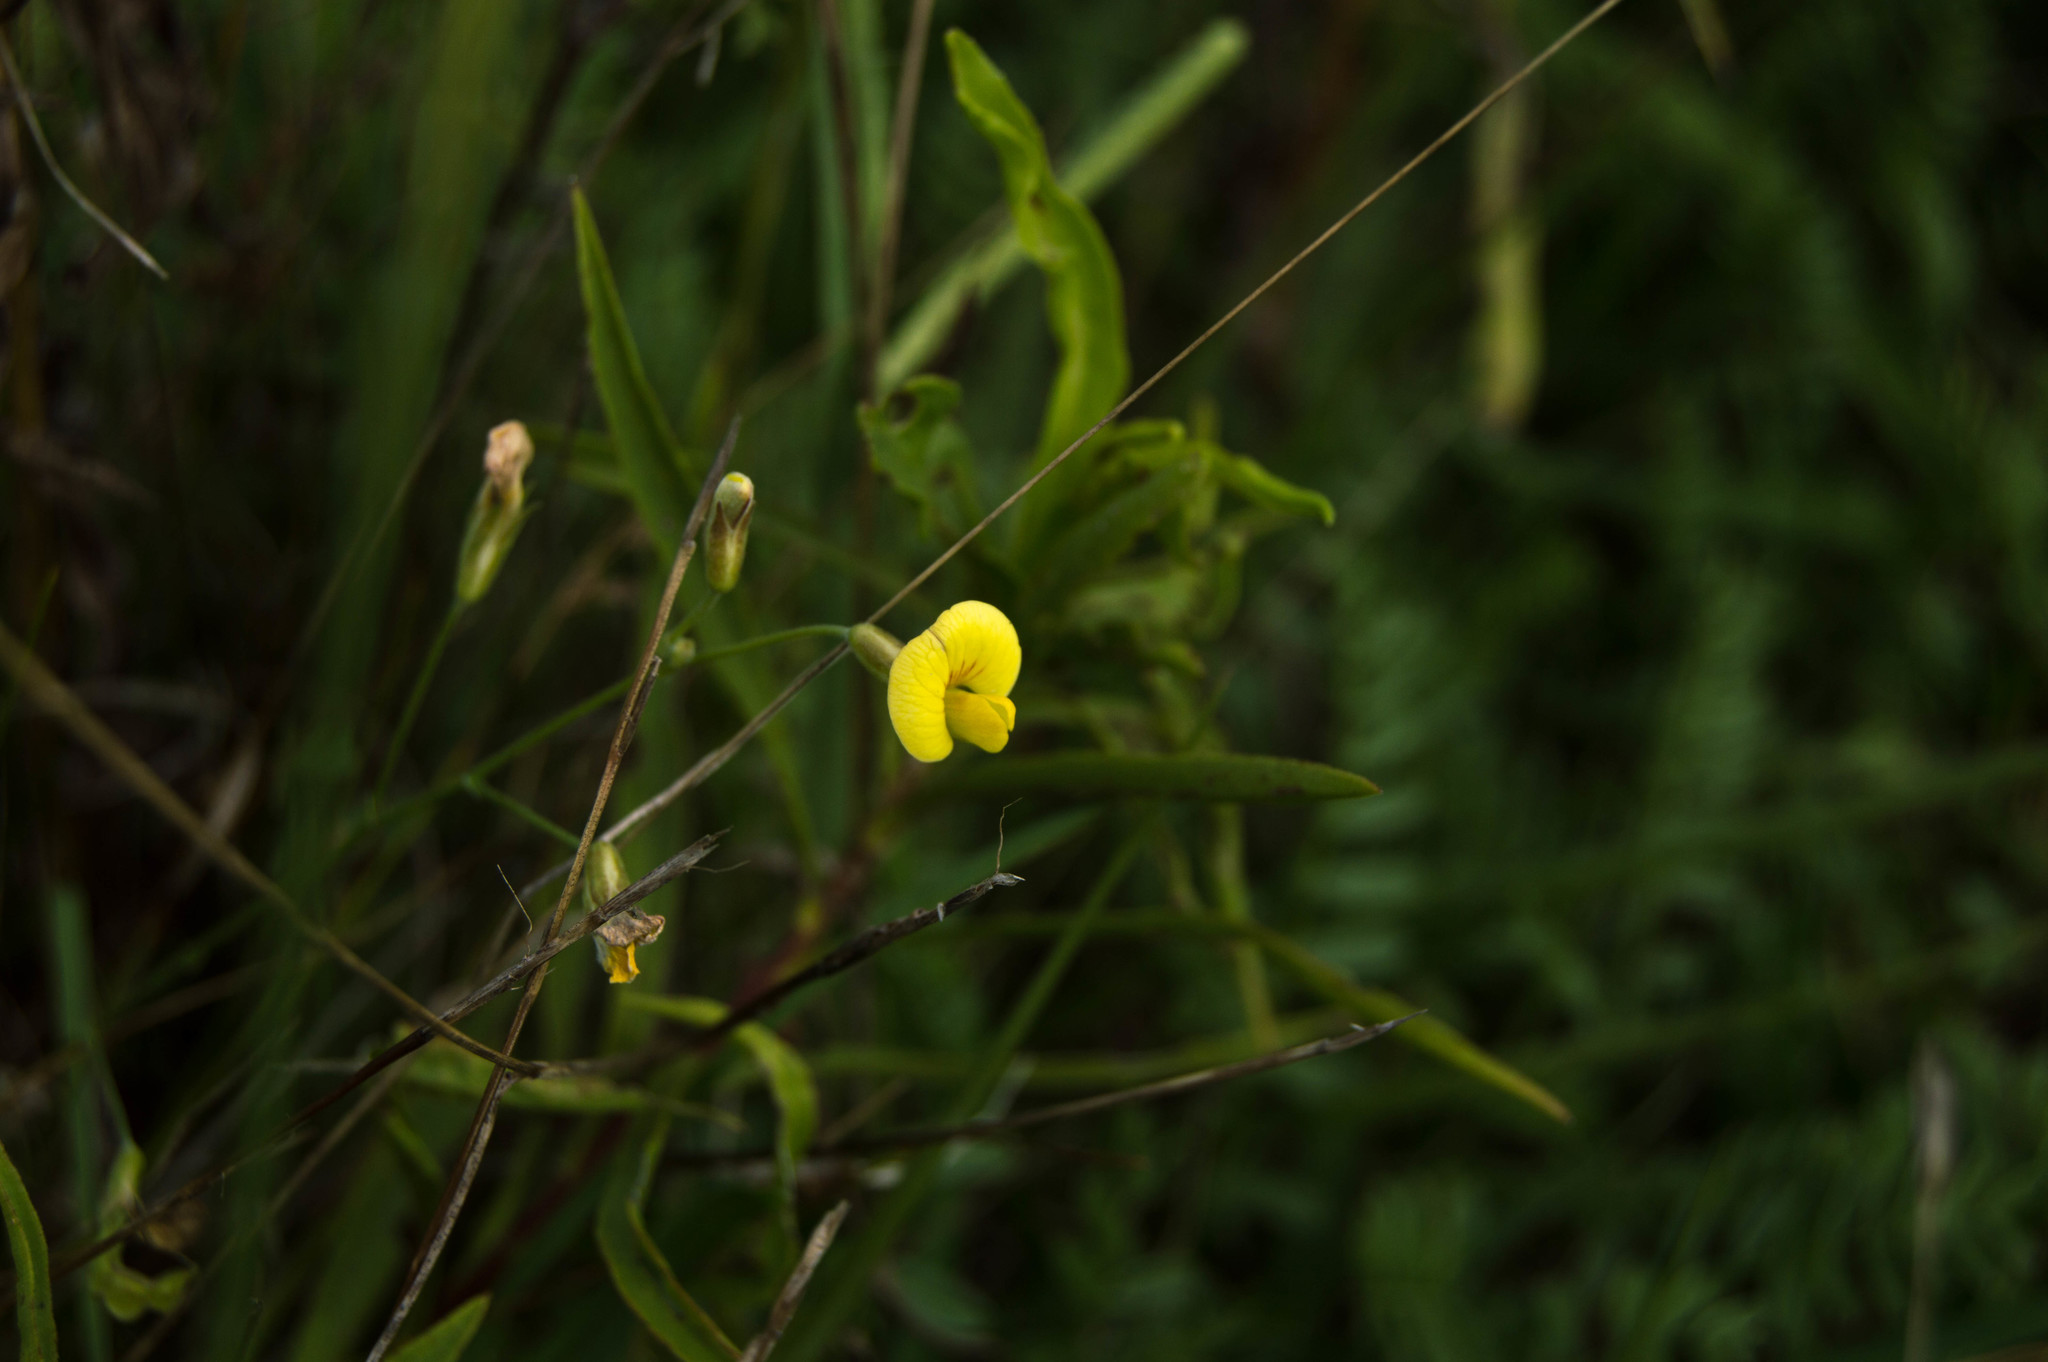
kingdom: Plantae
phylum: Tracheophyta
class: Magnoliopsida
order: Fabales
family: Fabaceae
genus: Adesmia
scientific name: Adesmia bicolor
